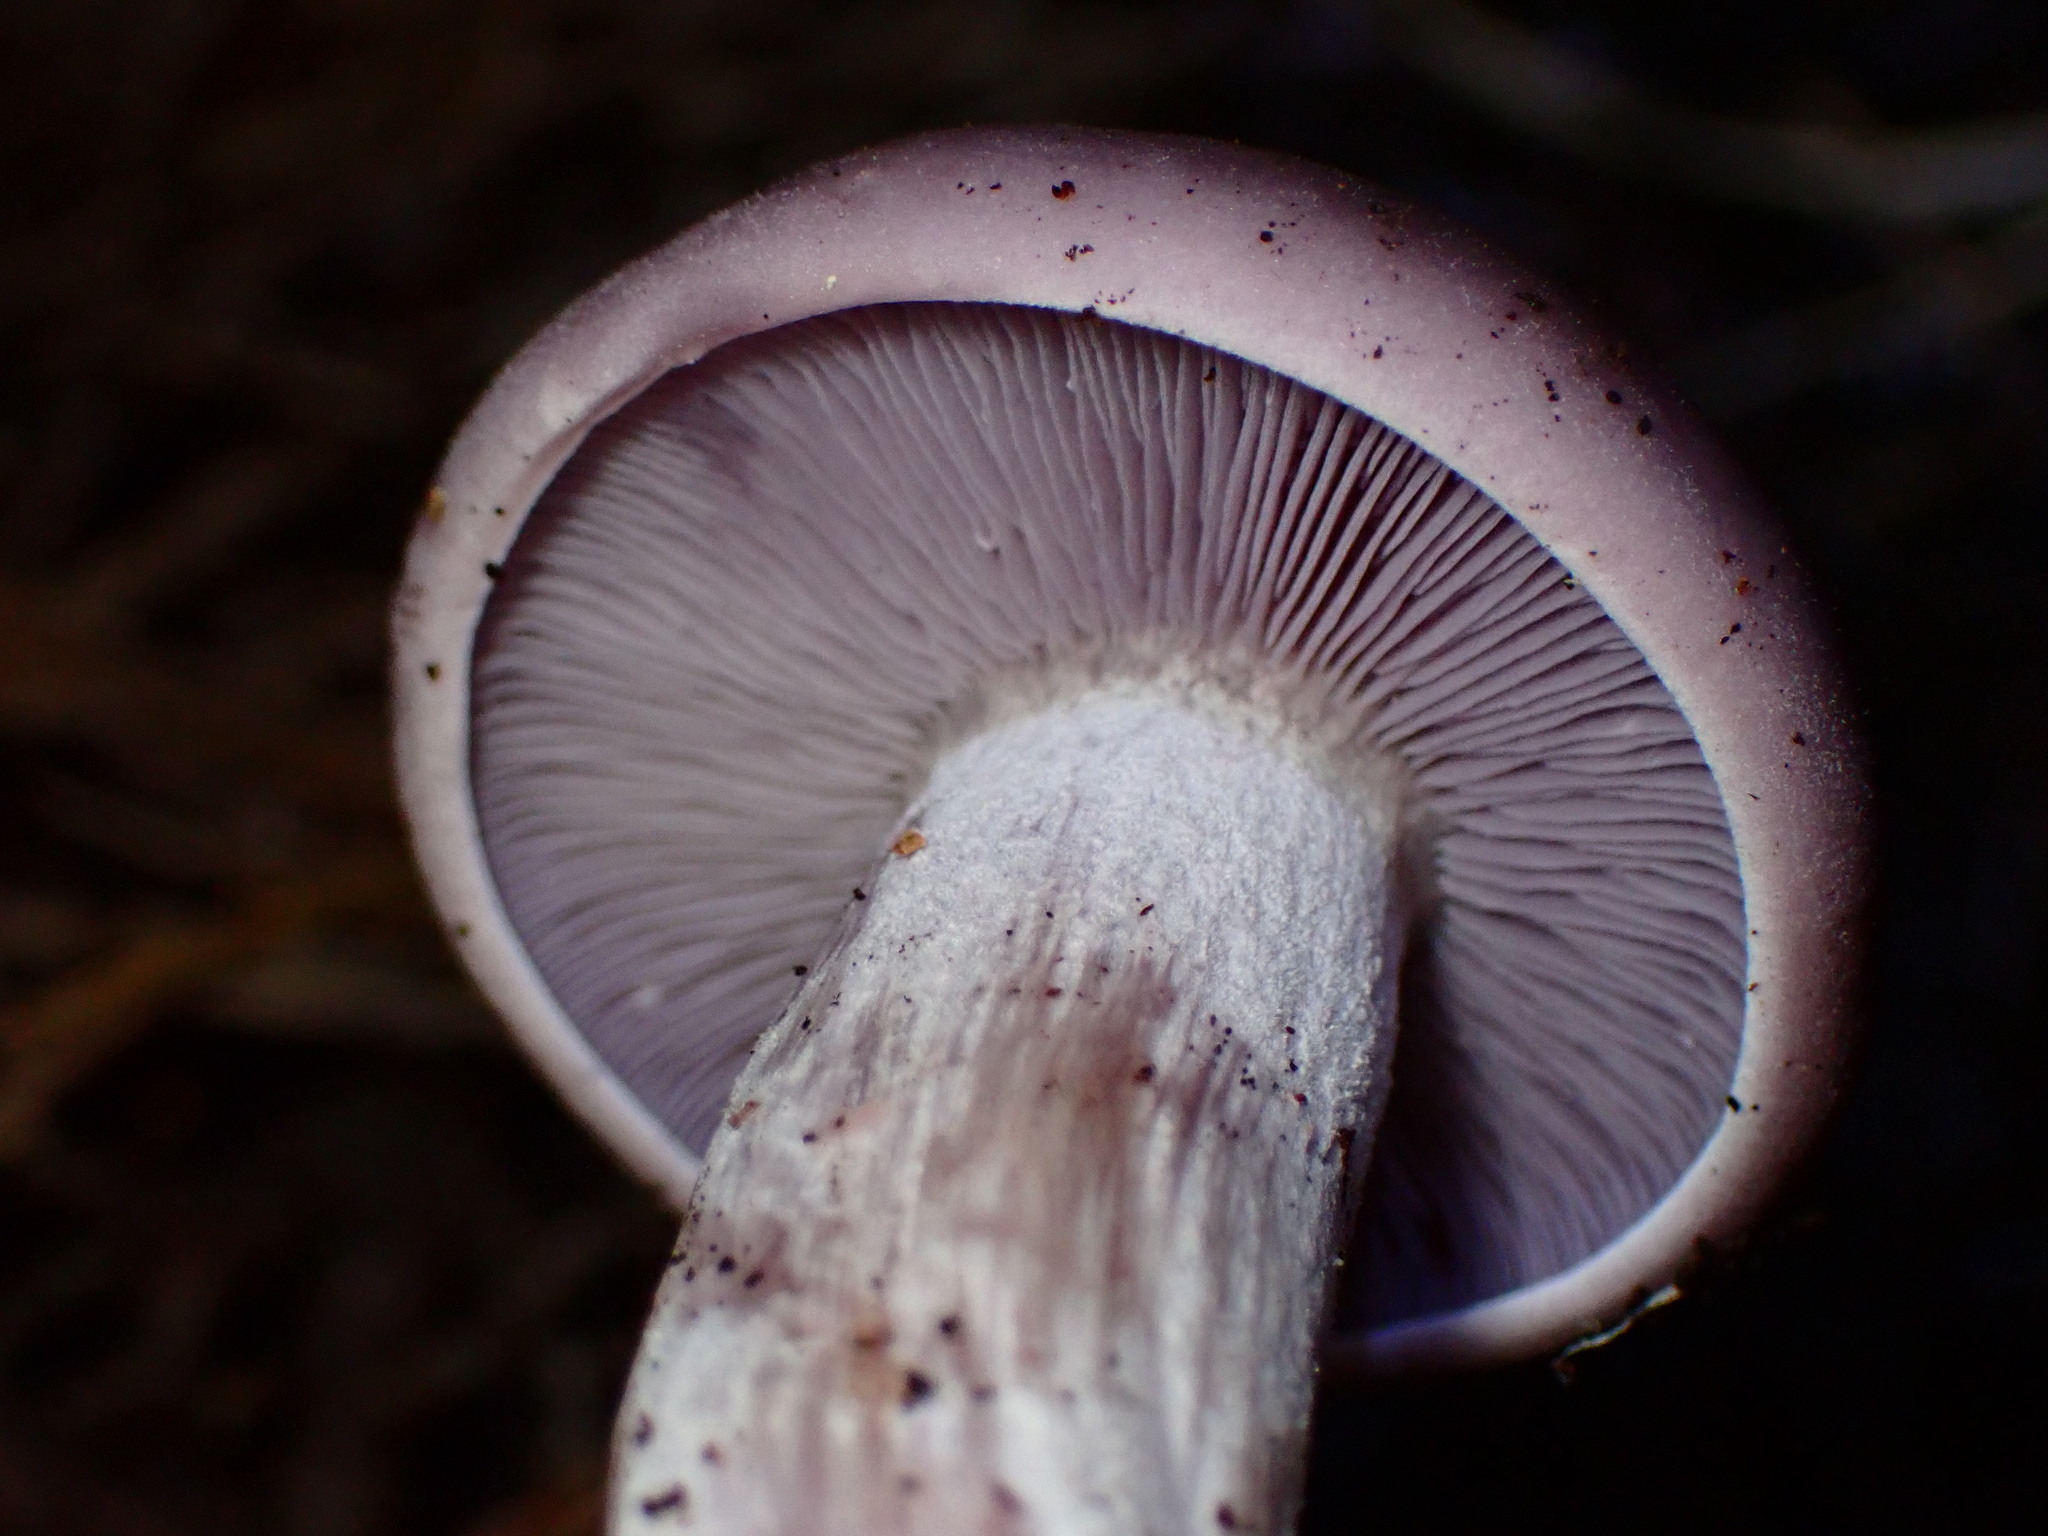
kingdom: Fungi
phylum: Basidiomycota
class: Agaricomycetes
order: Agaricales
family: Tricholomataceae
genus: Collybia
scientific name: Collybia
